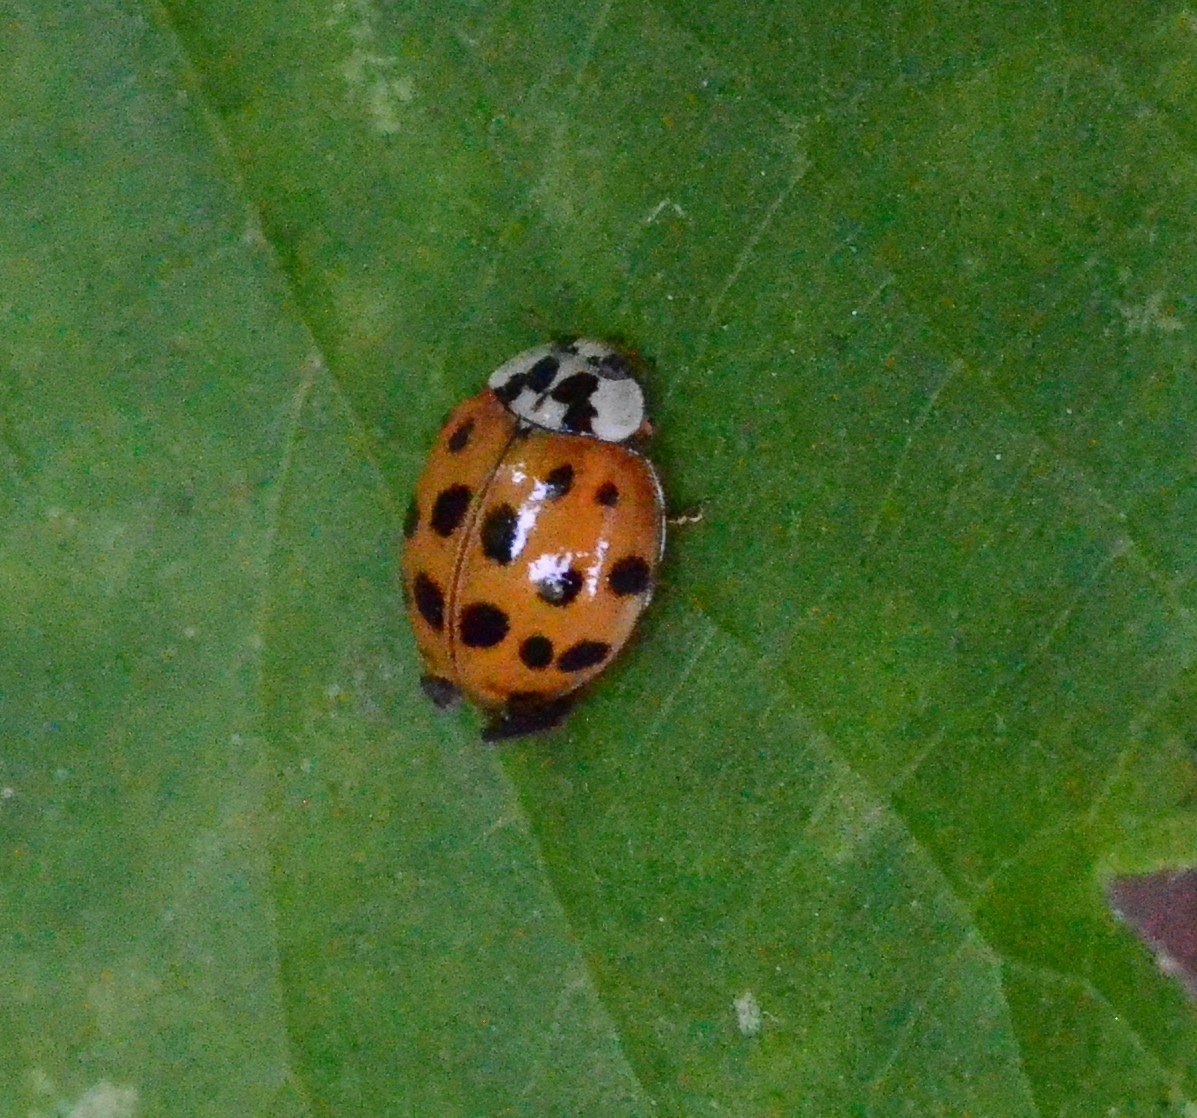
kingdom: Animalia
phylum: Arthropoda
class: Insecta
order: Coleoptera
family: Coccinellidae
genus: Harmonia
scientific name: Harmonia axyridis
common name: Harlequin ladybird
